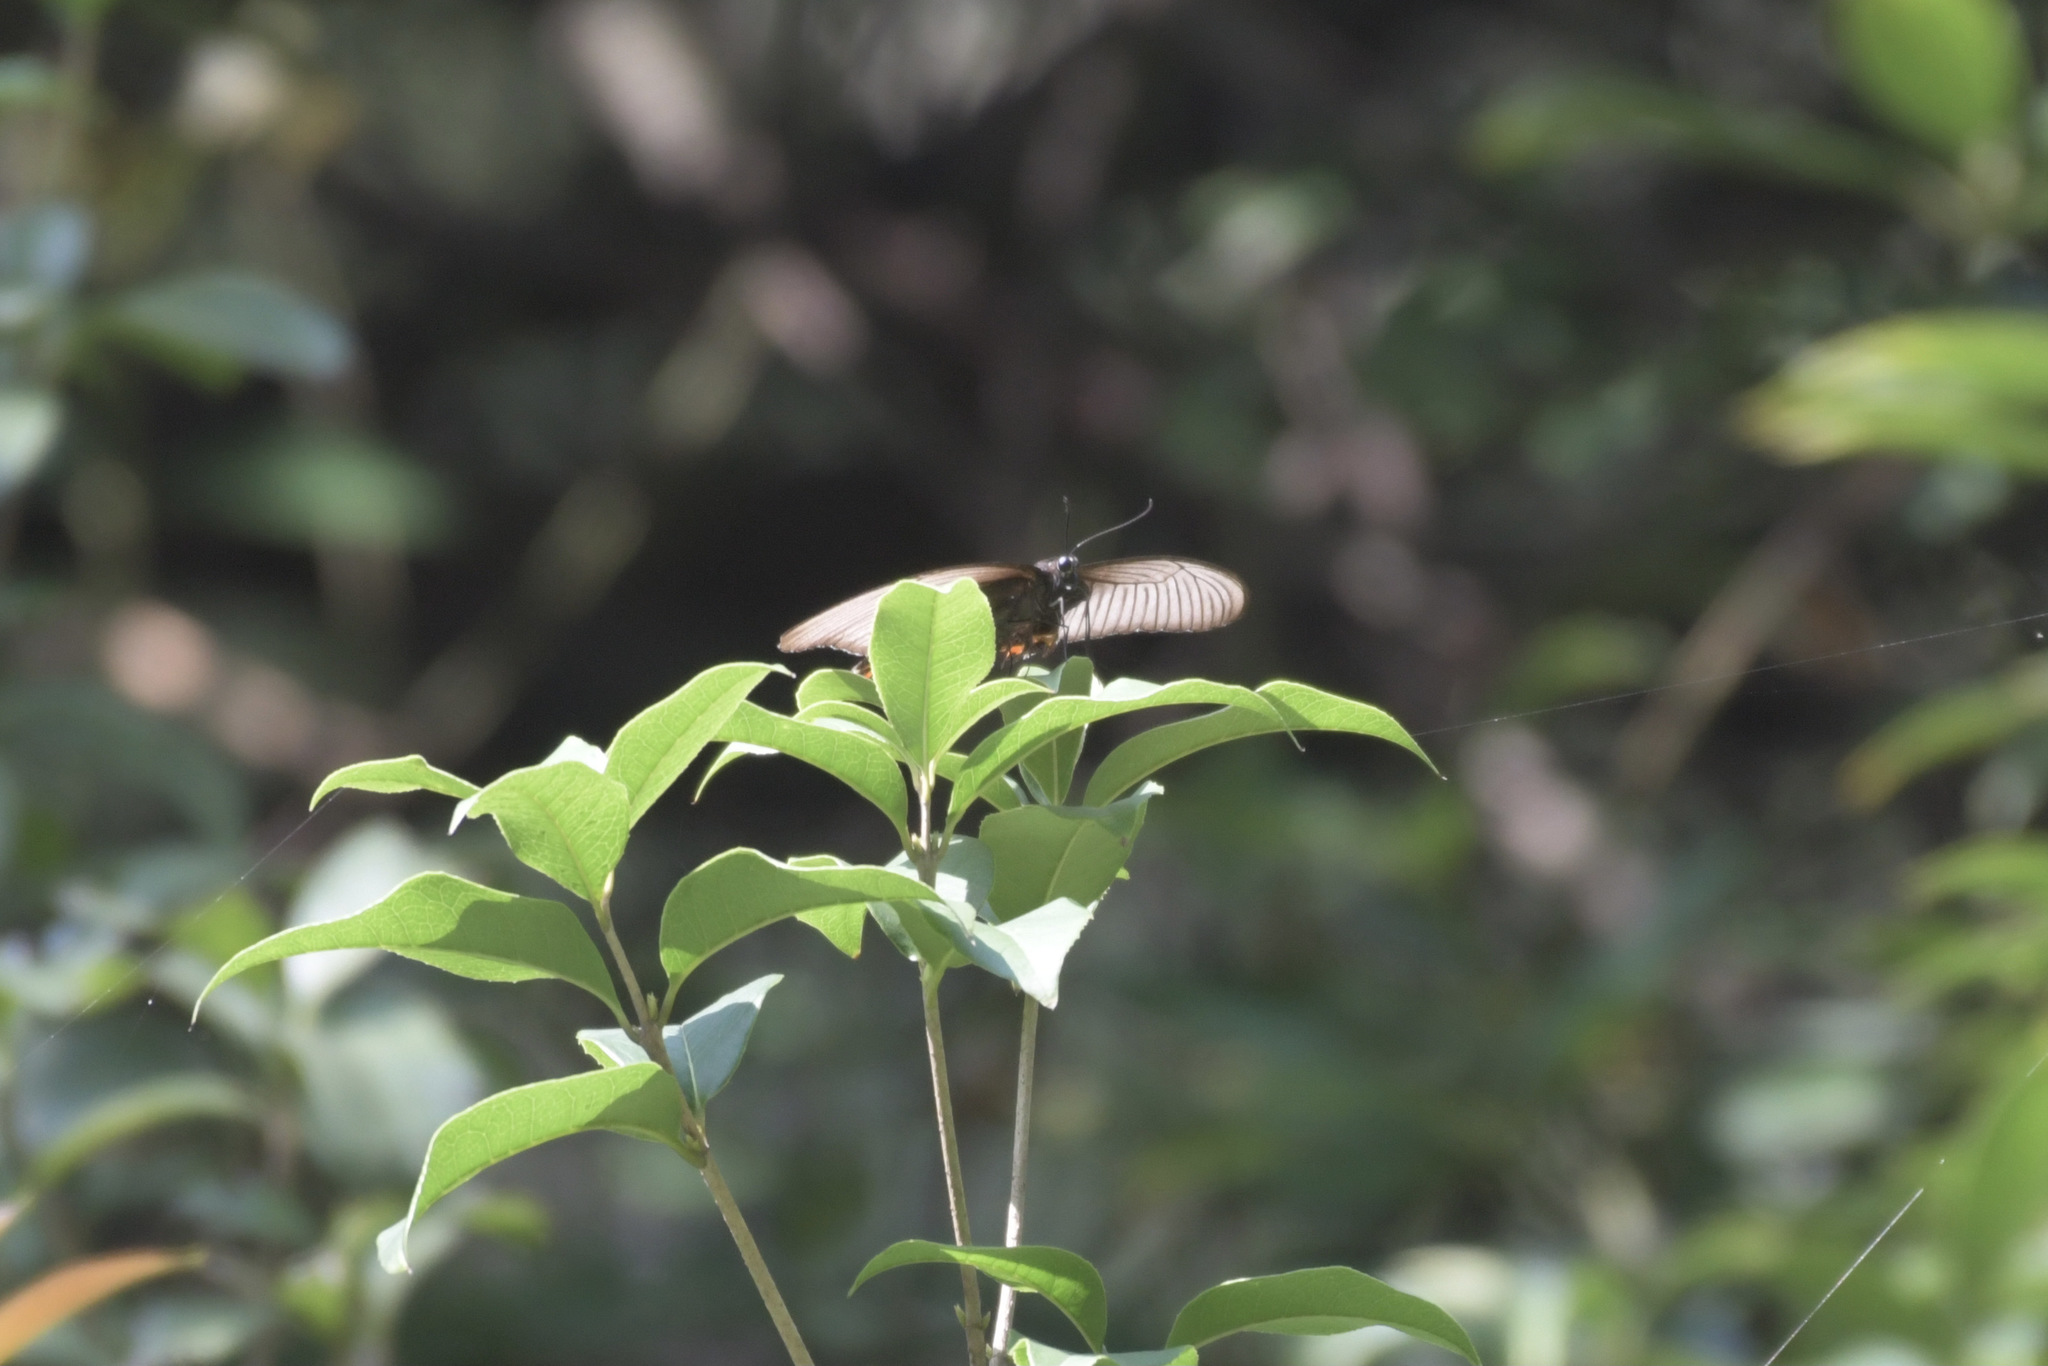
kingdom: Animalia
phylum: Arthropoda
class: Insecta
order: Lepidoptera
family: Papilionidae
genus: Papilio
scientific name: Papilio bianor
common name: Common peacock
